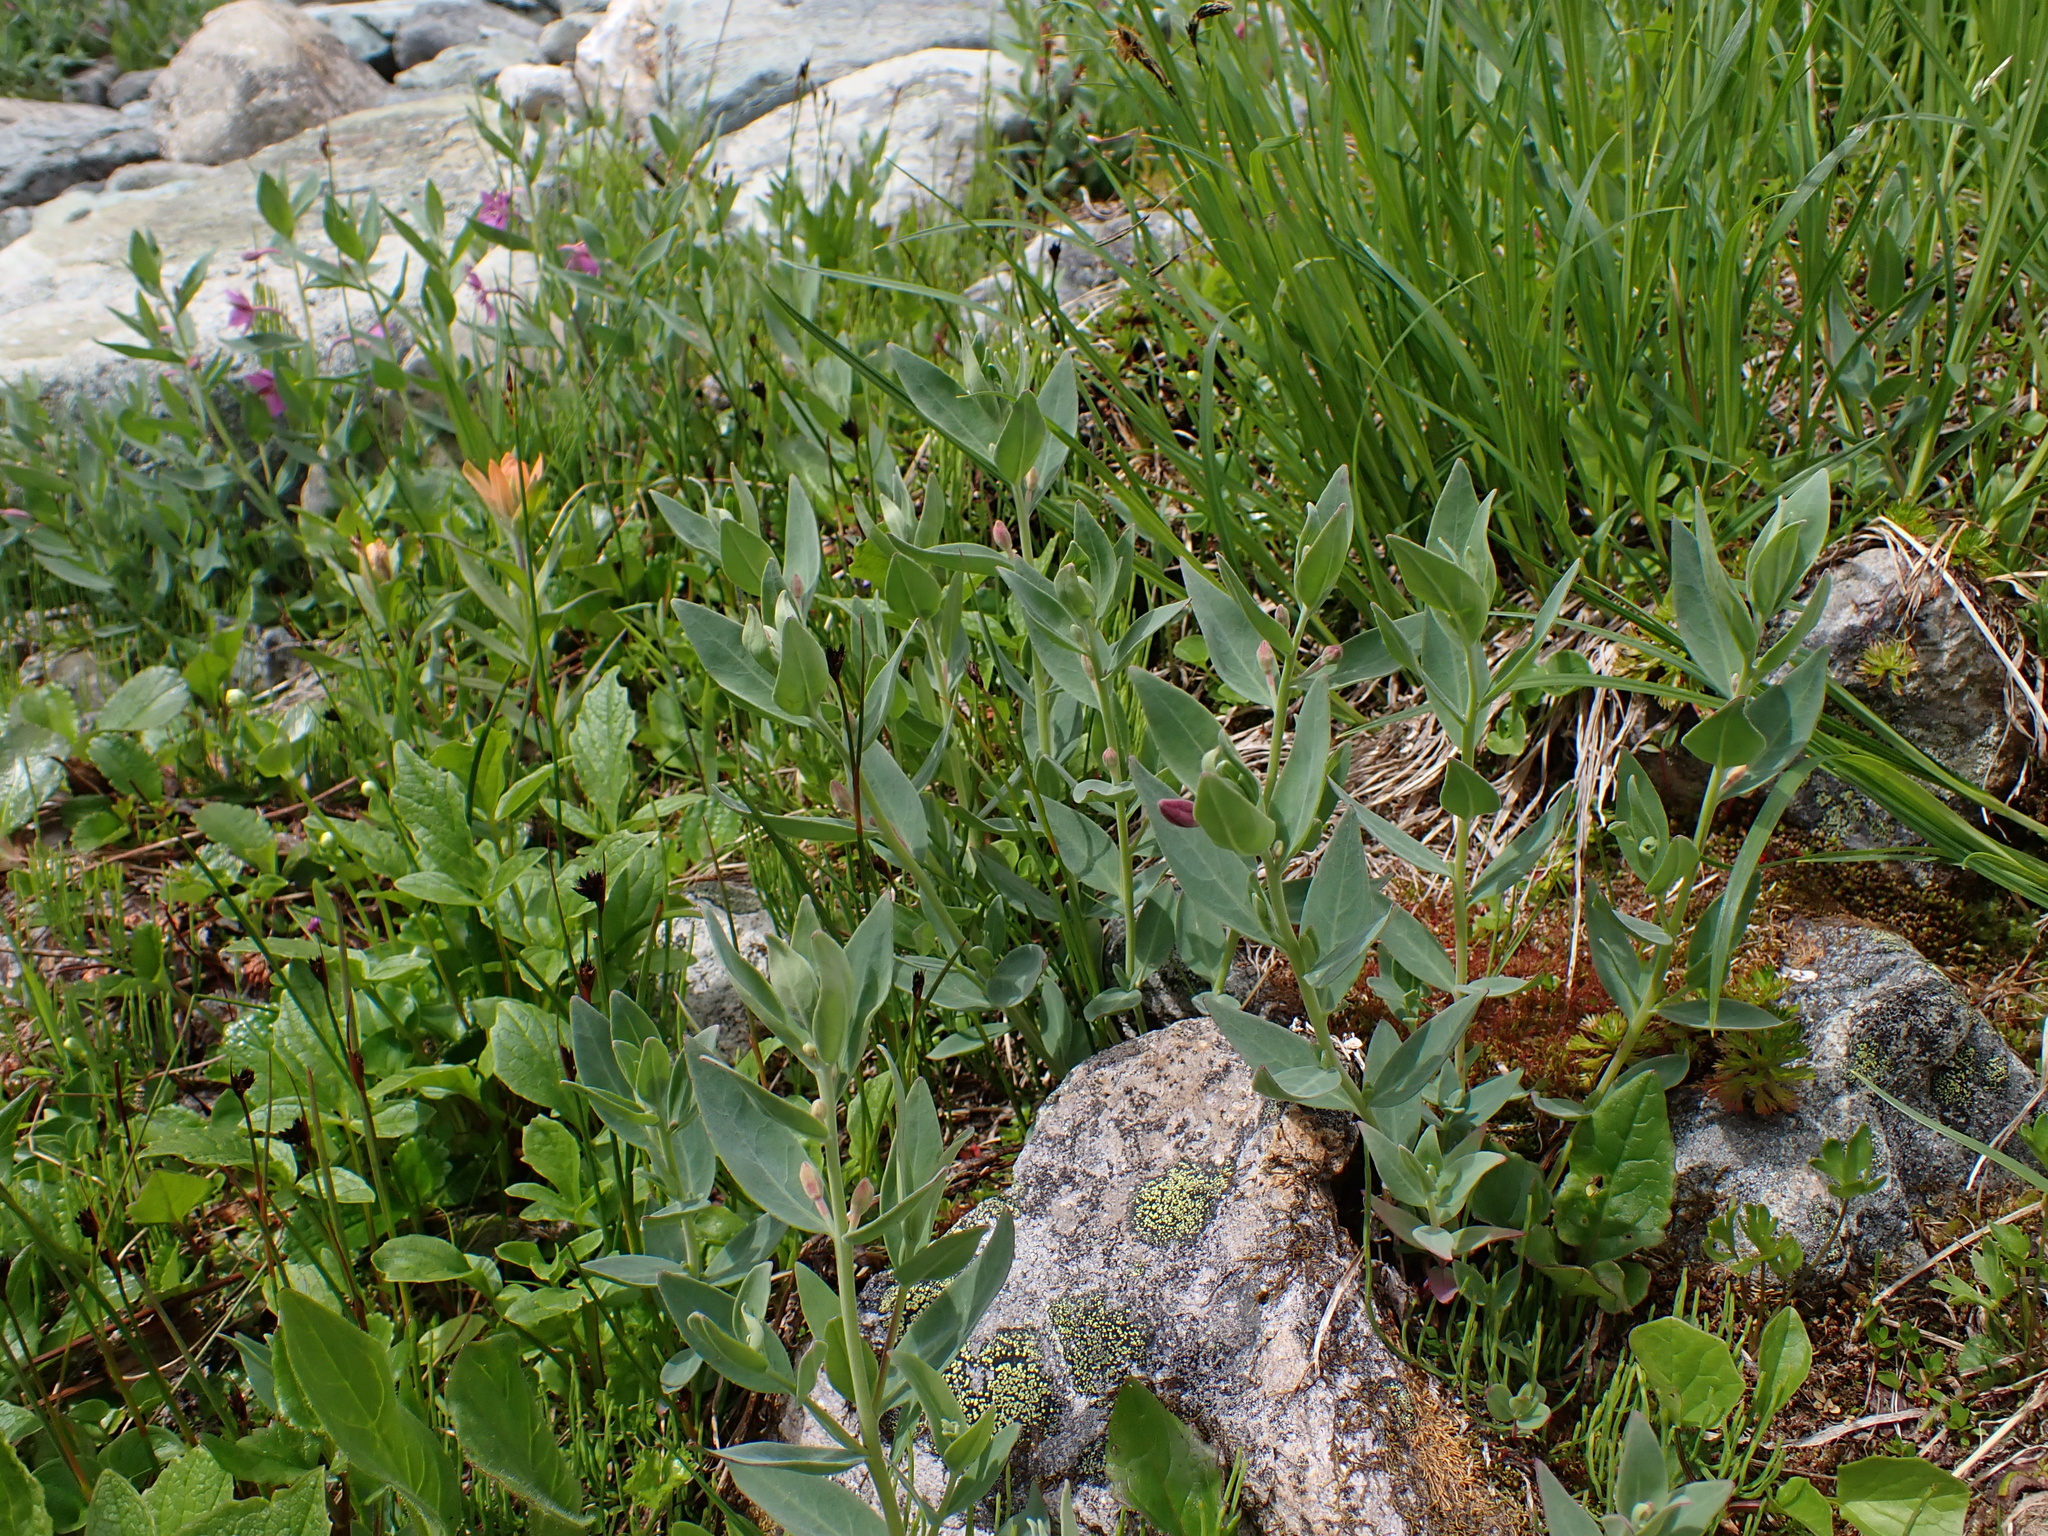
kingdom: Plantae
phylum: Tracheophyta
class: Magnoliopsida
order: Myrtales
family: Onagraceae
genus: Chamaenerion
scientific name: Chamaenerion latifolium
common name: Dwarf fireweed
